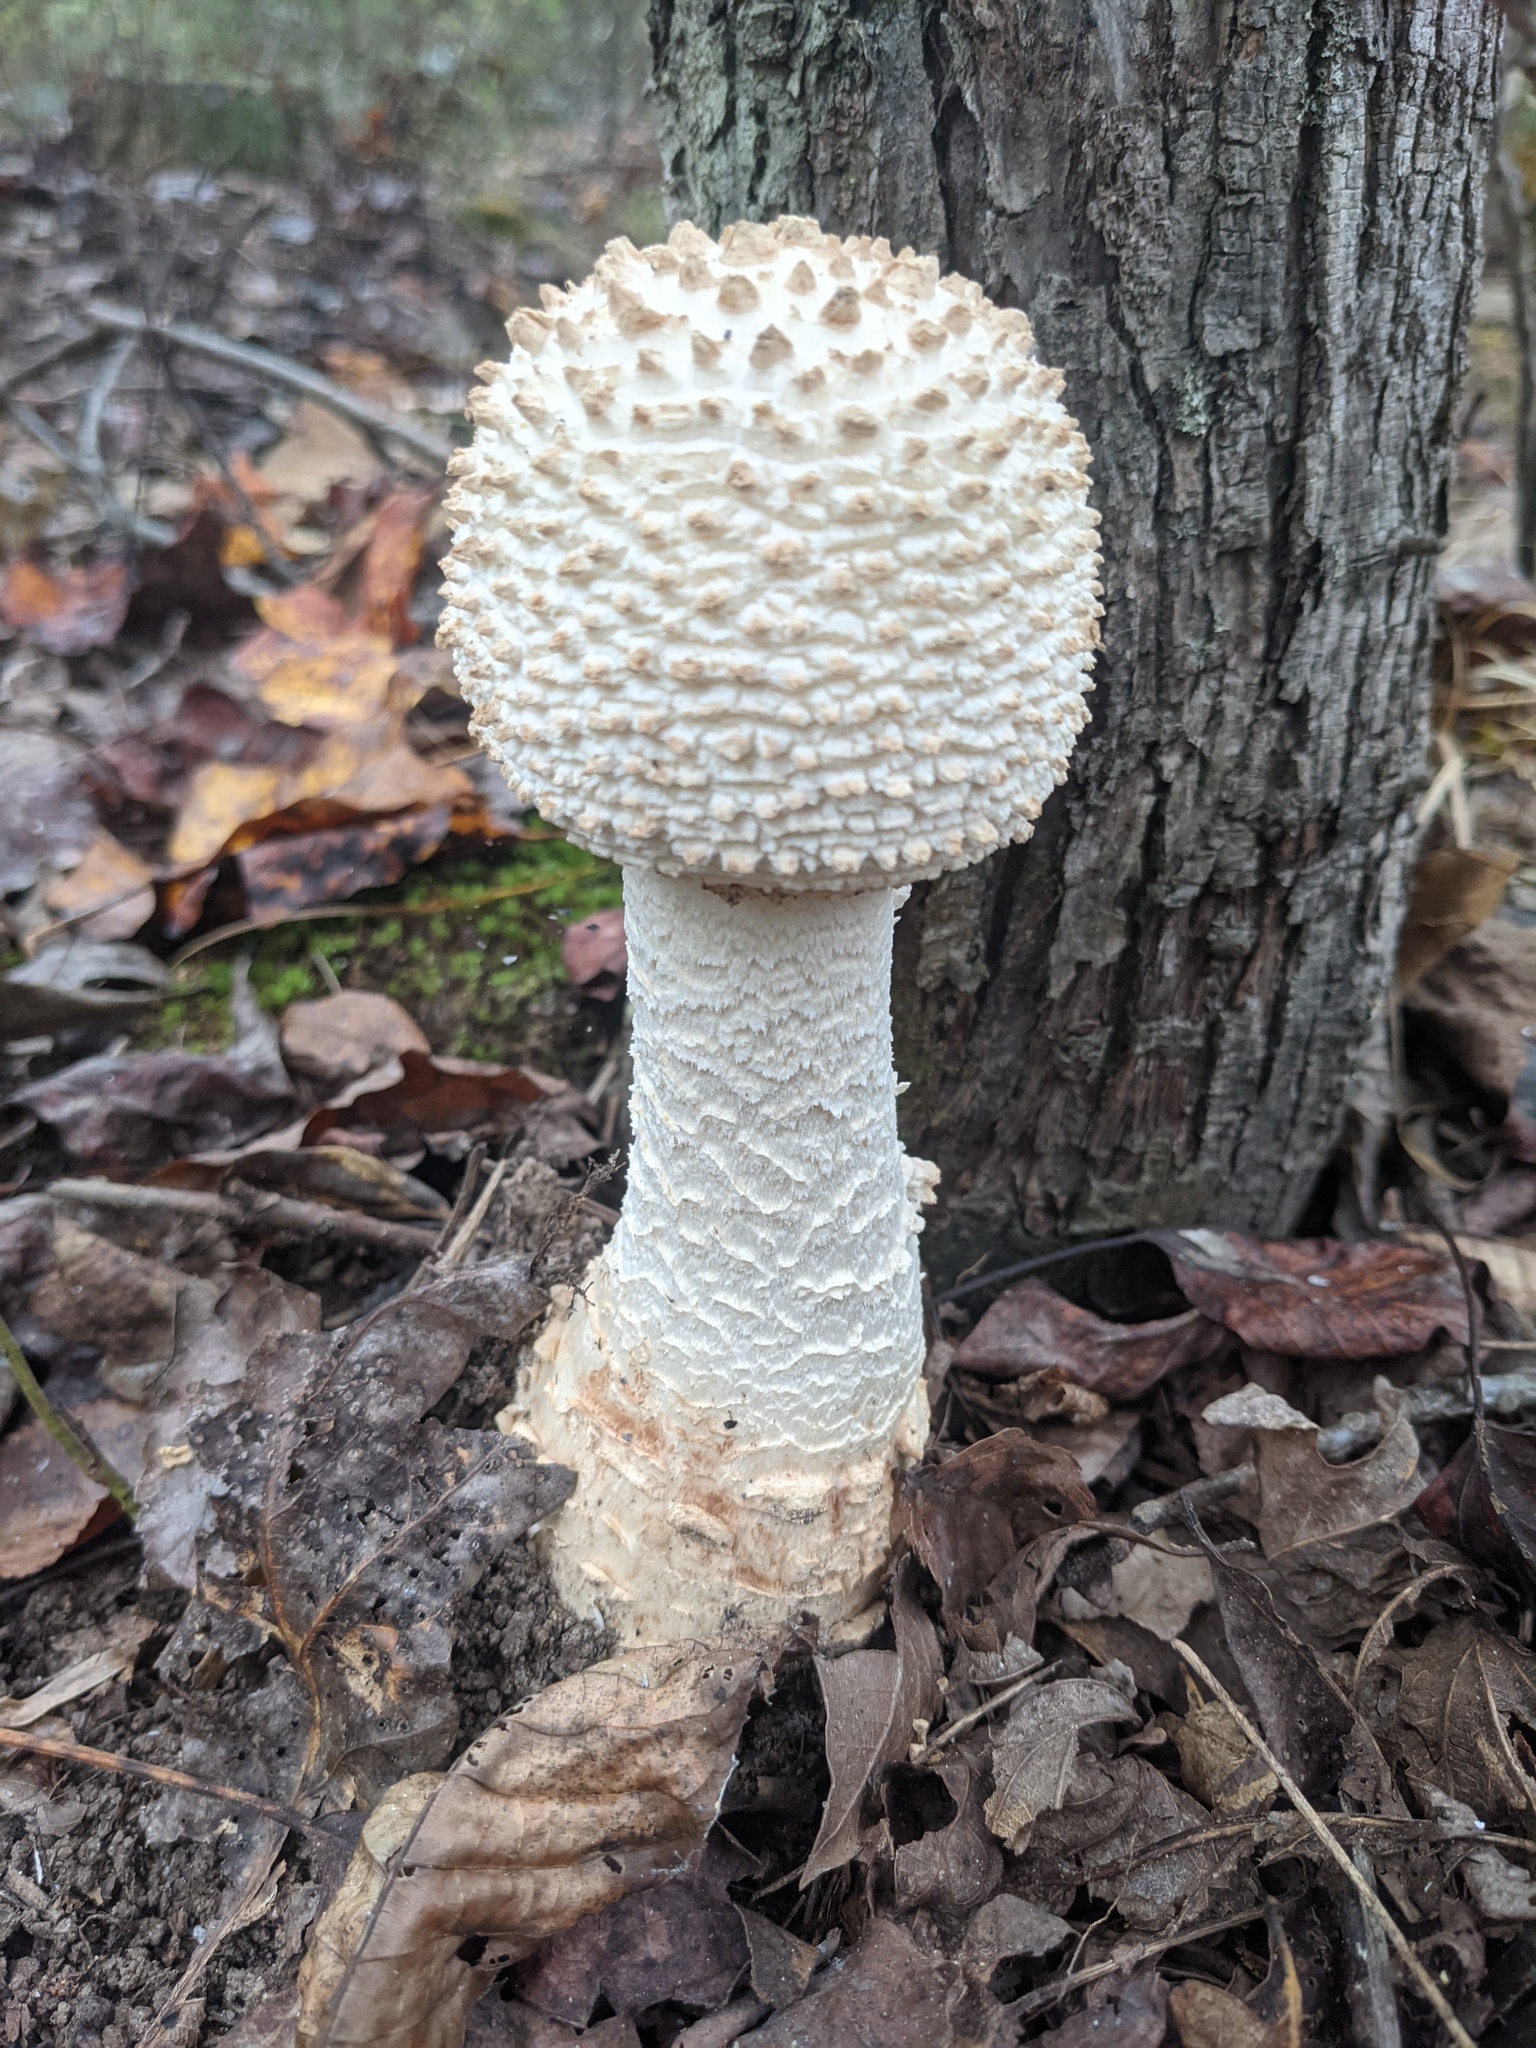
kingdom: Fungi
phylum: Basidiomycota
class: Agaricomycetes
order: Agaricales
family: Amanitaceae
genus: Amanita
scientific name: Amanita daucipes
